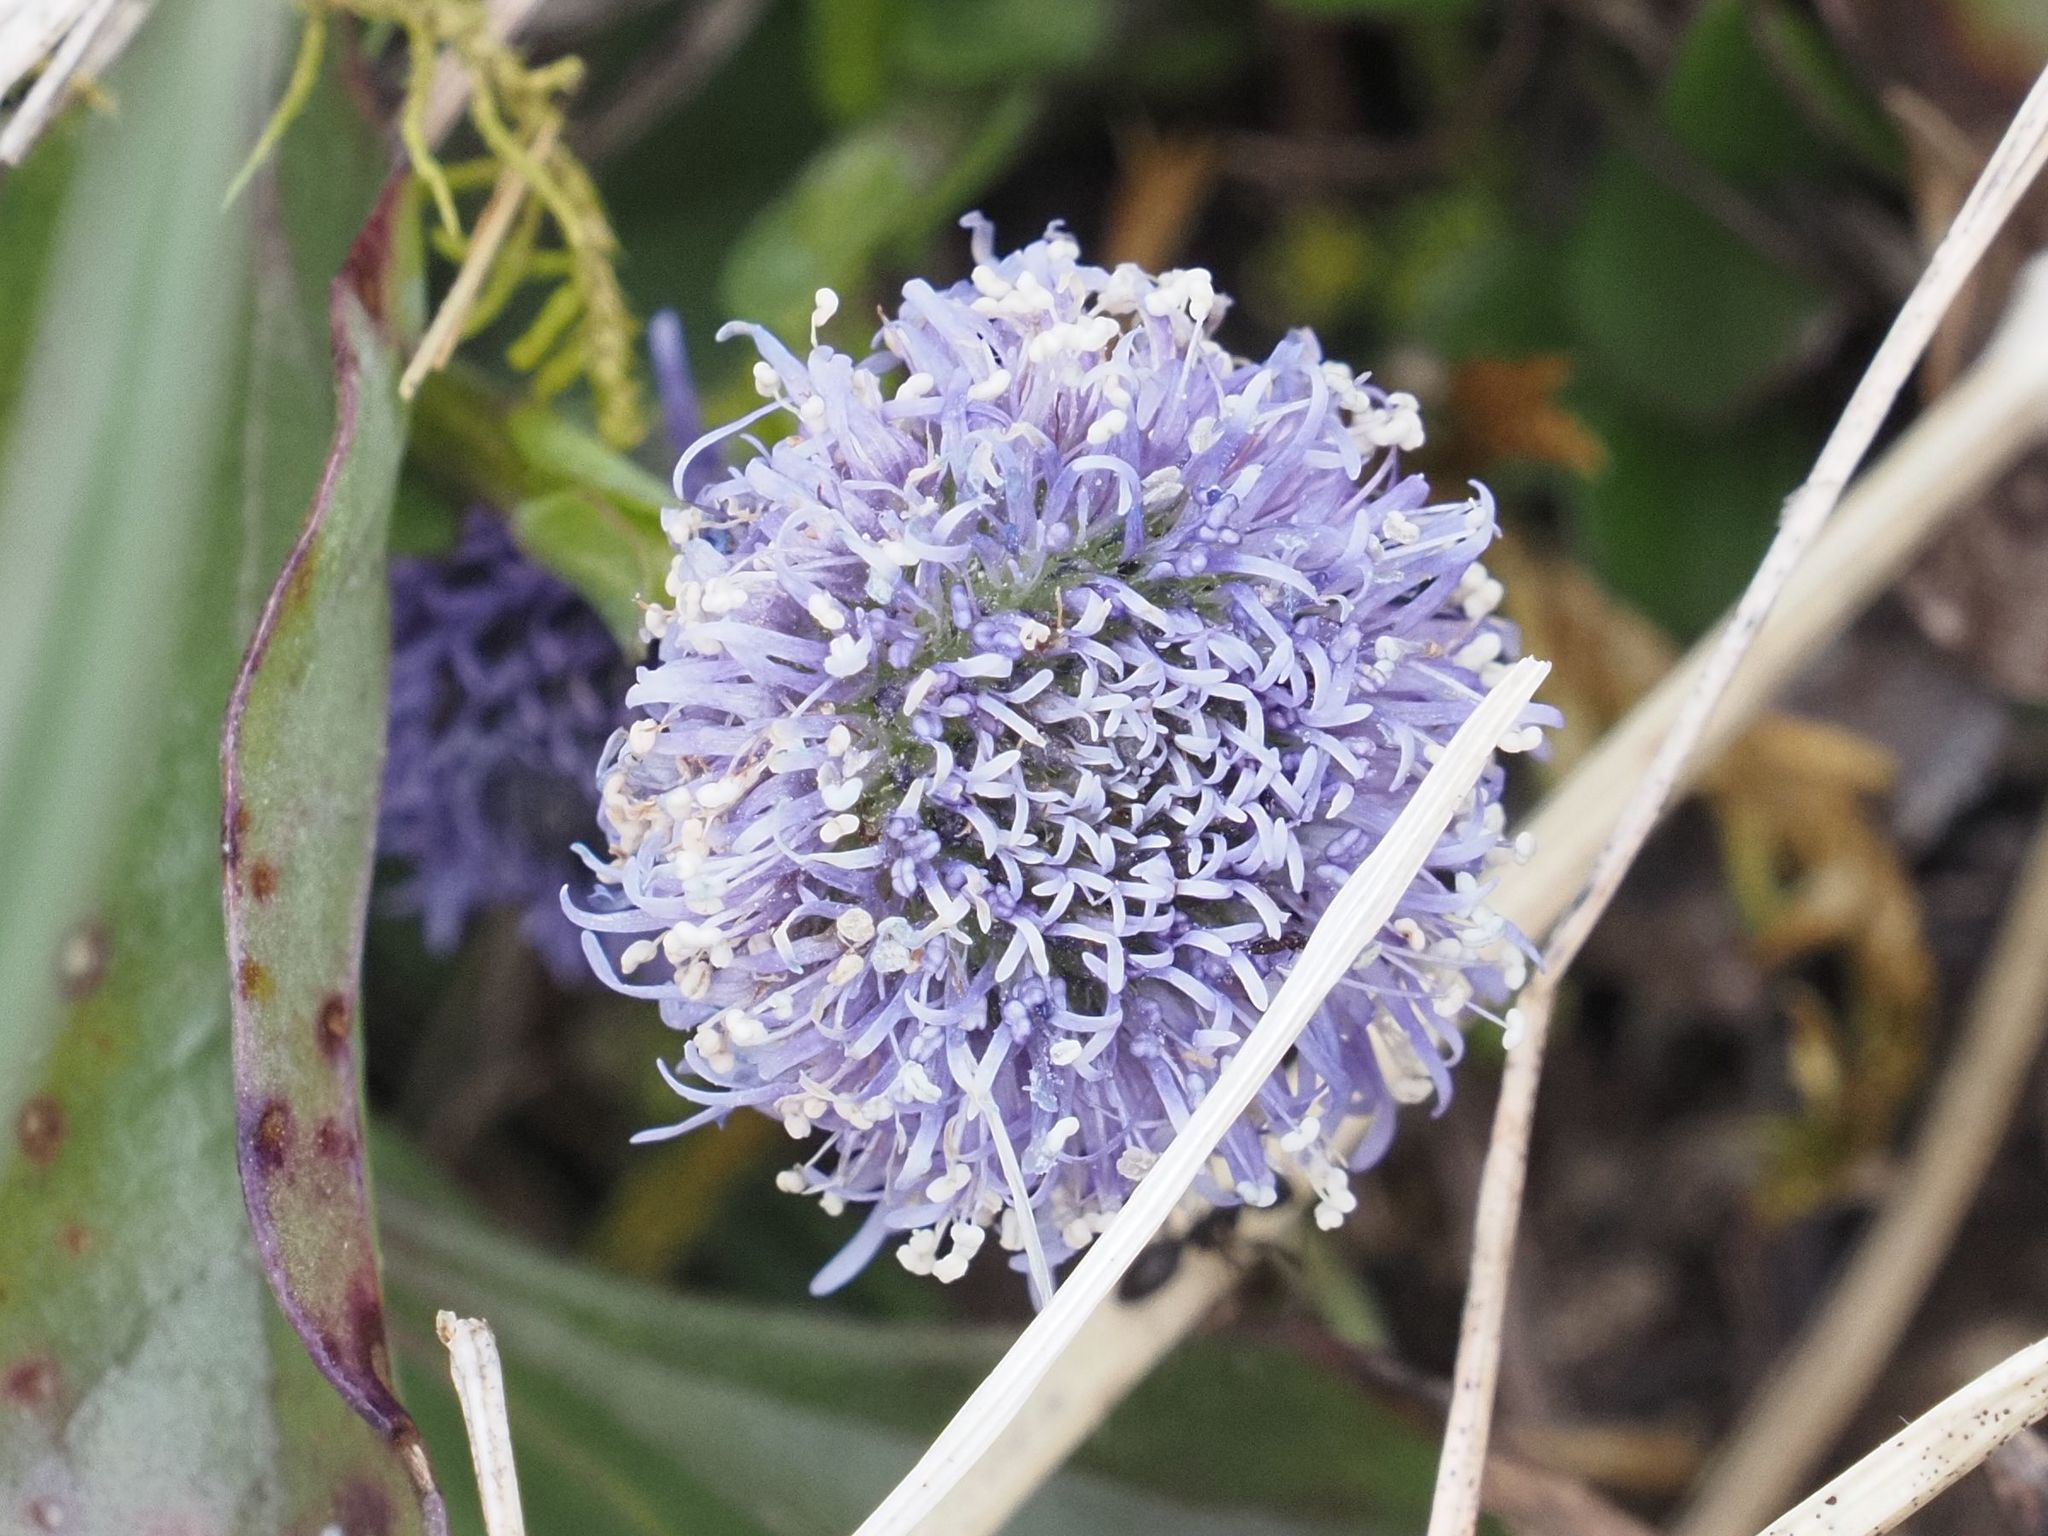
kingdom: Plantae
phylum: Tracheophyta
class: Magnoliopsida
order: Lamiales
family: Plantaginaceae
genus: Globularia
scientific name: Globularia bisnagarica
